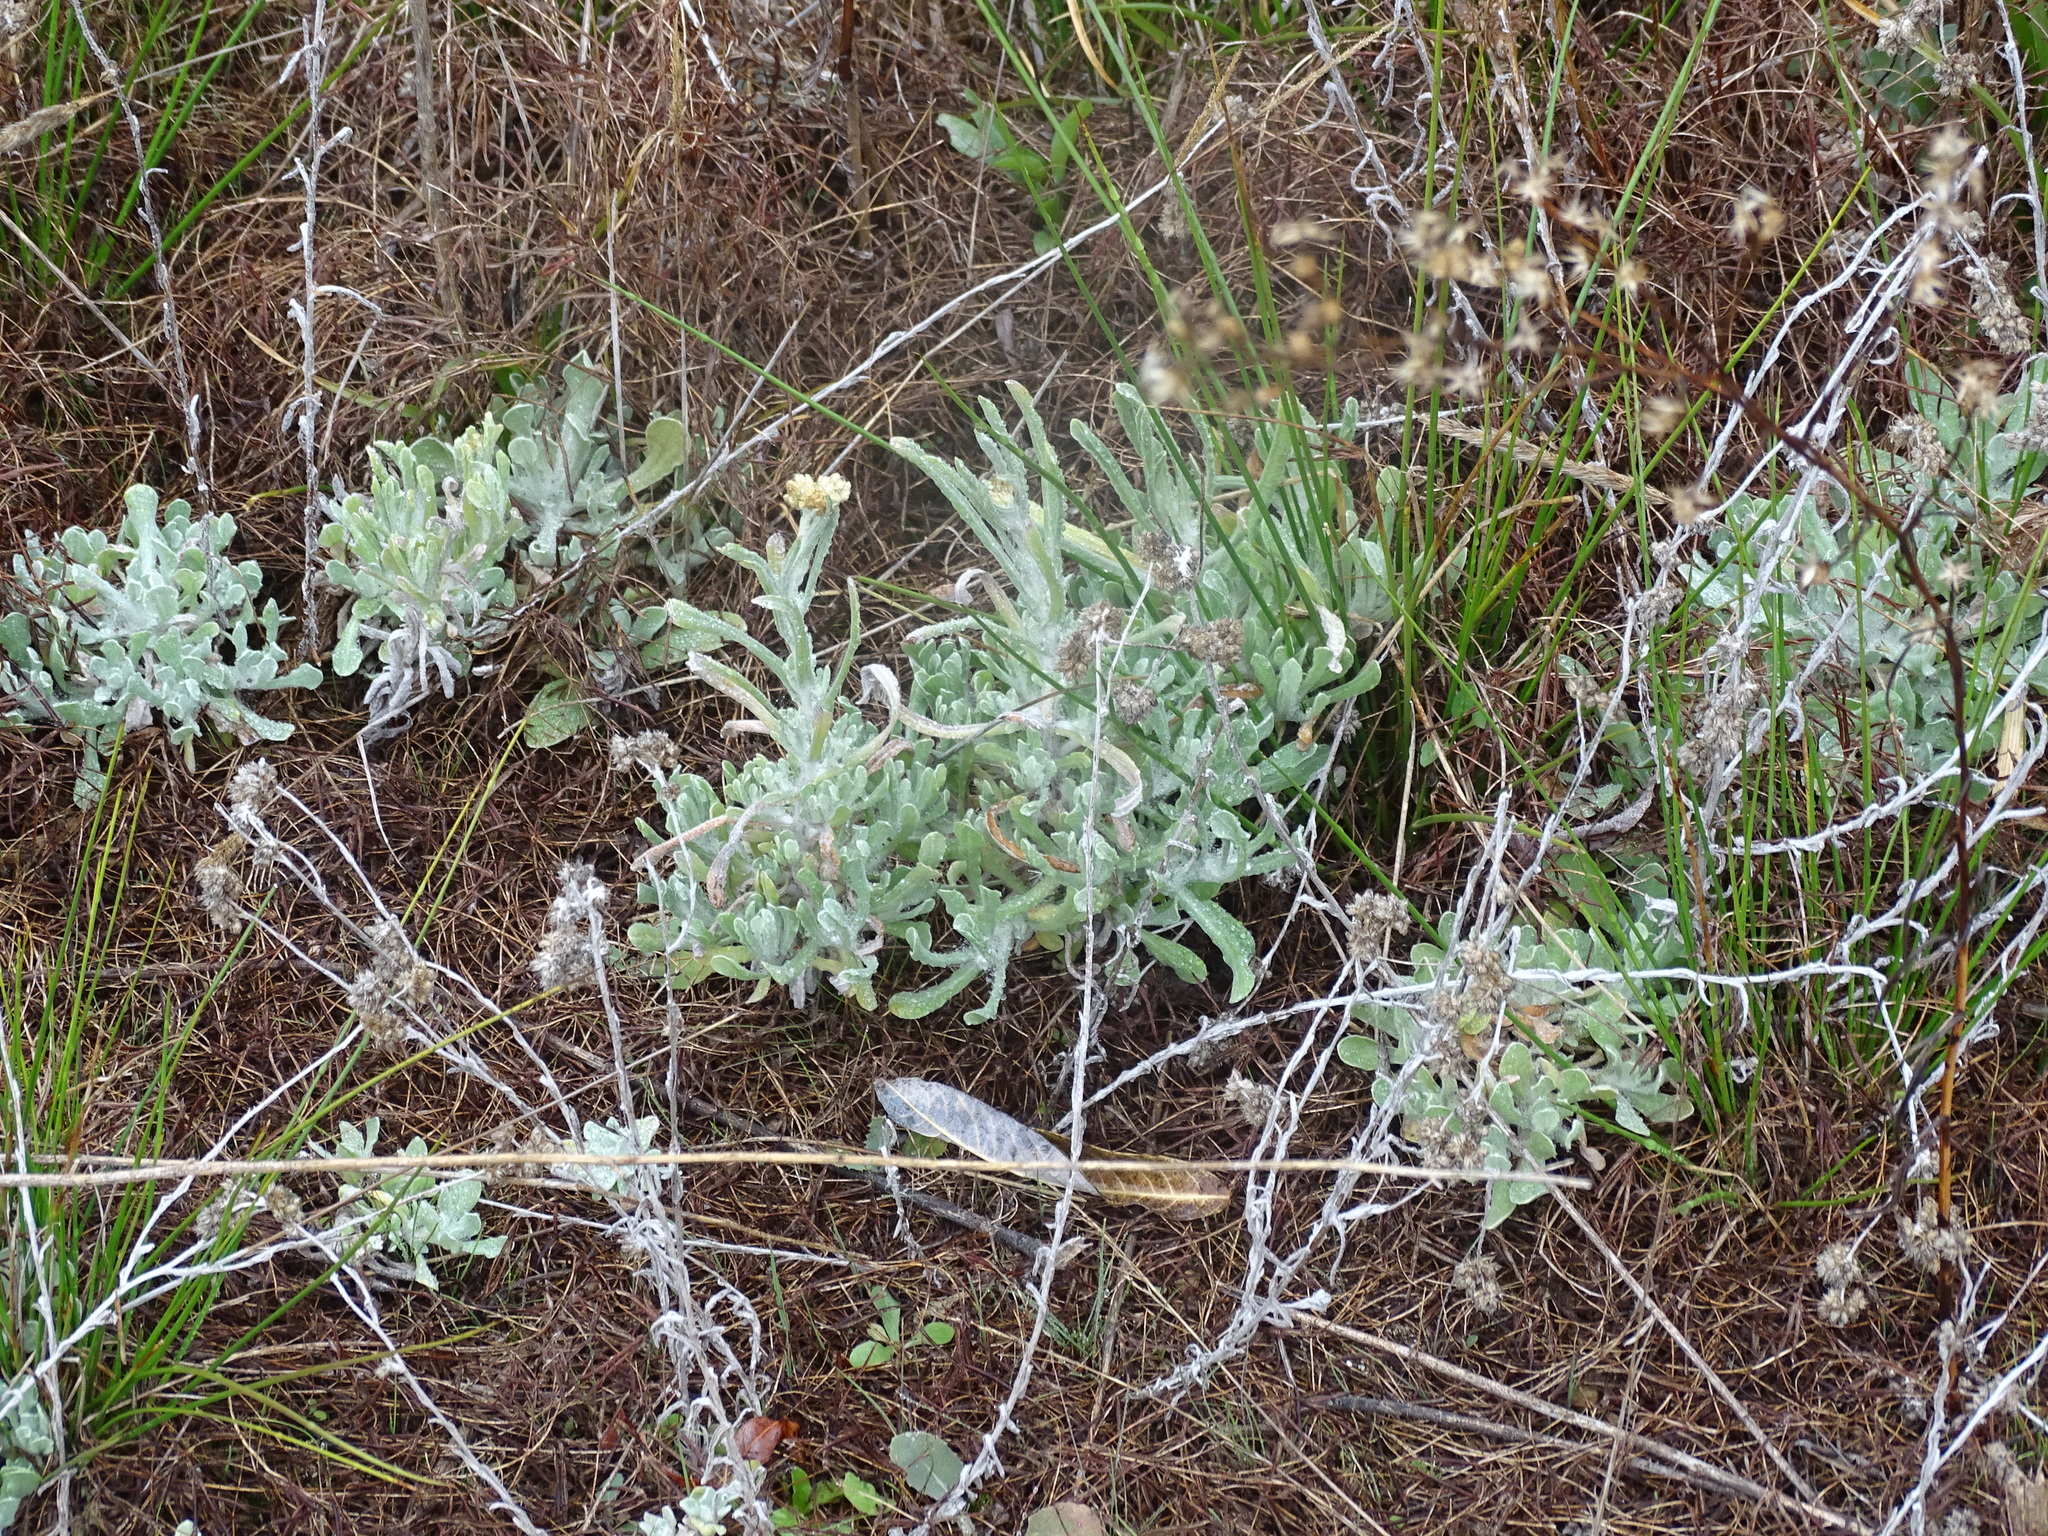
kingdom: Plantae
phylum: Tracheophyta
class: Magnoliopsida
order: Asterales
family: Asteraceae
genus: Helichrysum
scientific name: Helichrysum luteoalbum
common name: Daisy
